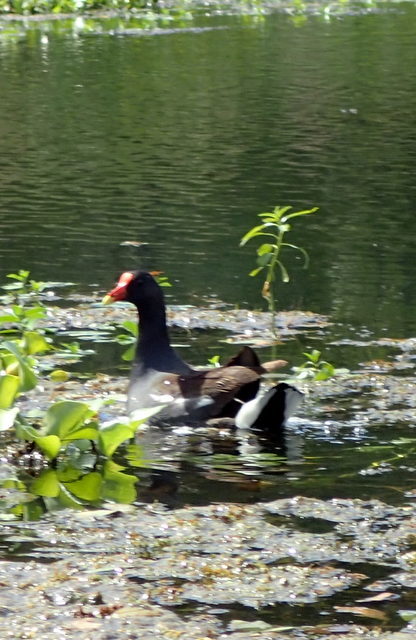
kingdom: Animalia
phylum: Chordata
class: Aves
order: Gruiformes
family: Rallidae
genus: Gallinula
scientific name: Gallinula chloropus
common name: Common moorhen
